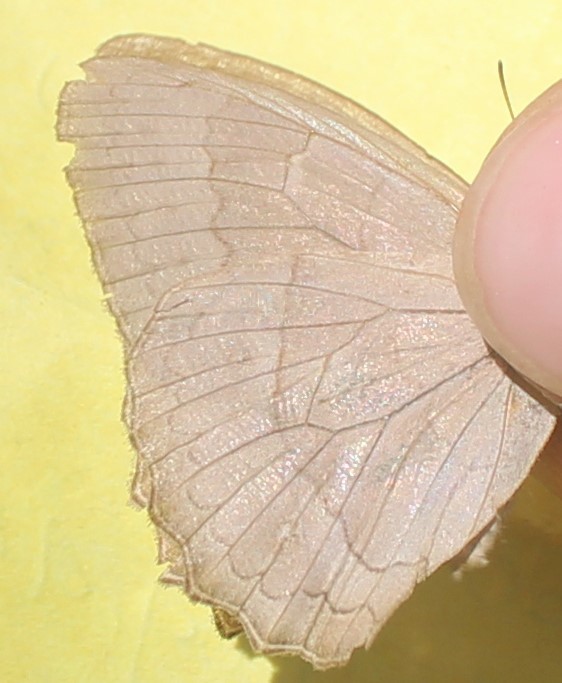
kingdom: Animalia
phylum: Arthropoda
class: Insecta
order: Lepidoptera
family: Nymphalidae
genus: Taygetina
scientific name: Taygetina kerea
